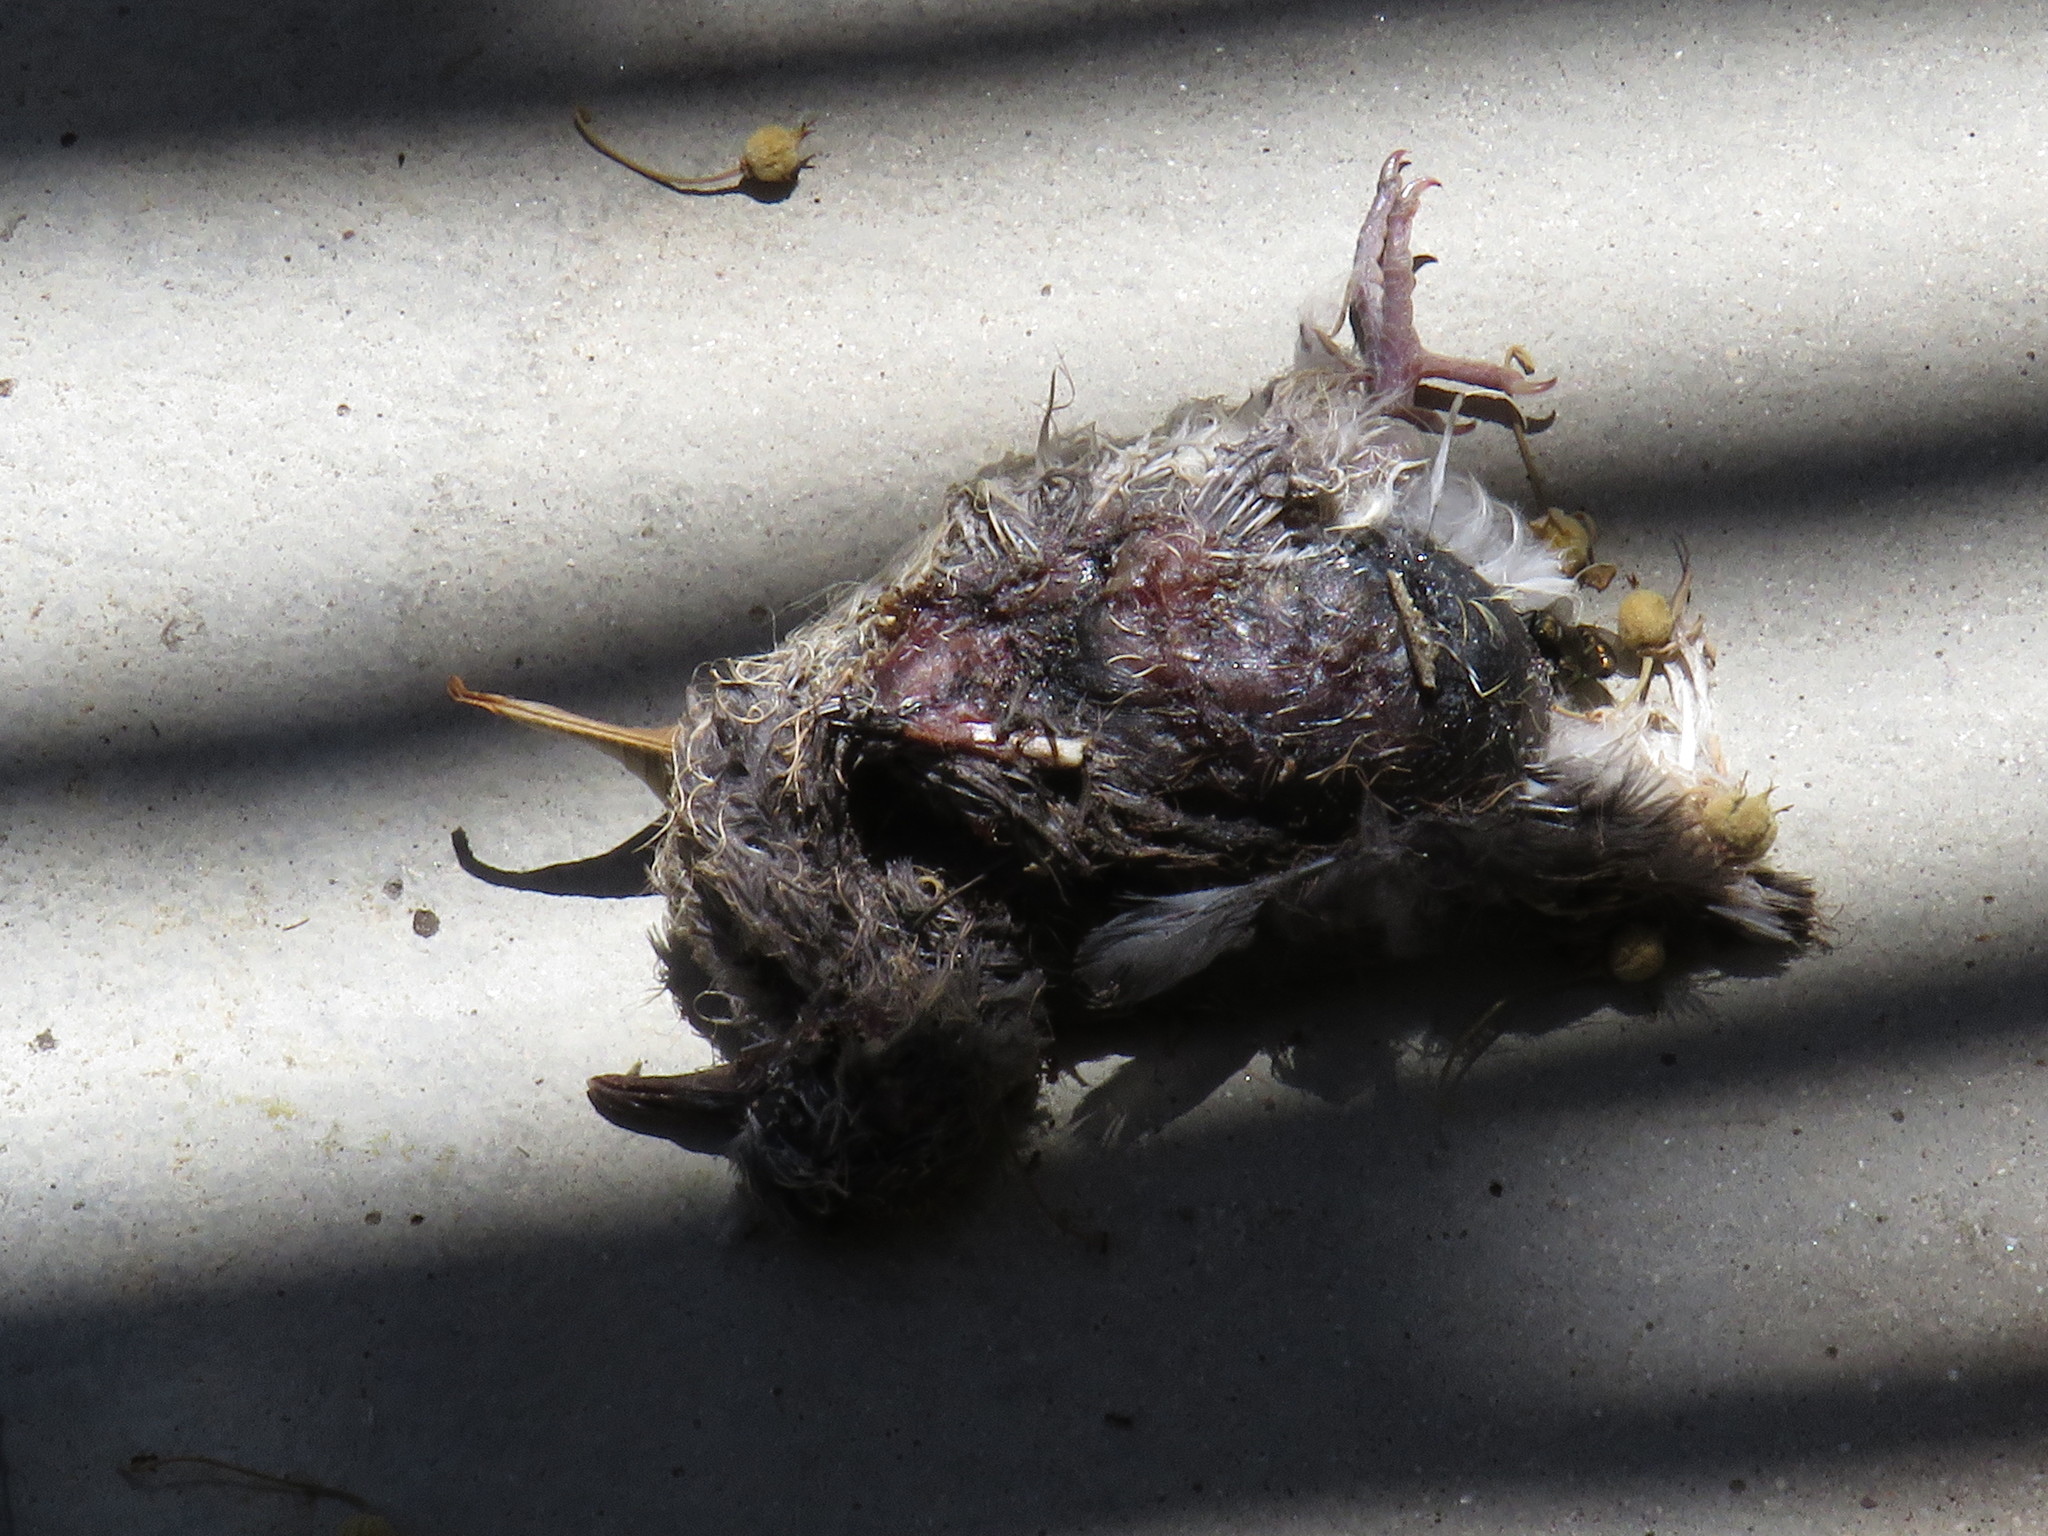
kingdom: Animalia
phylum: Chordata
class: Aves
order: Columbiformes
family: Columbidae
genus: Streptopelia
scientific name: Streptopelia capicola
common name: Ring-necked dove
